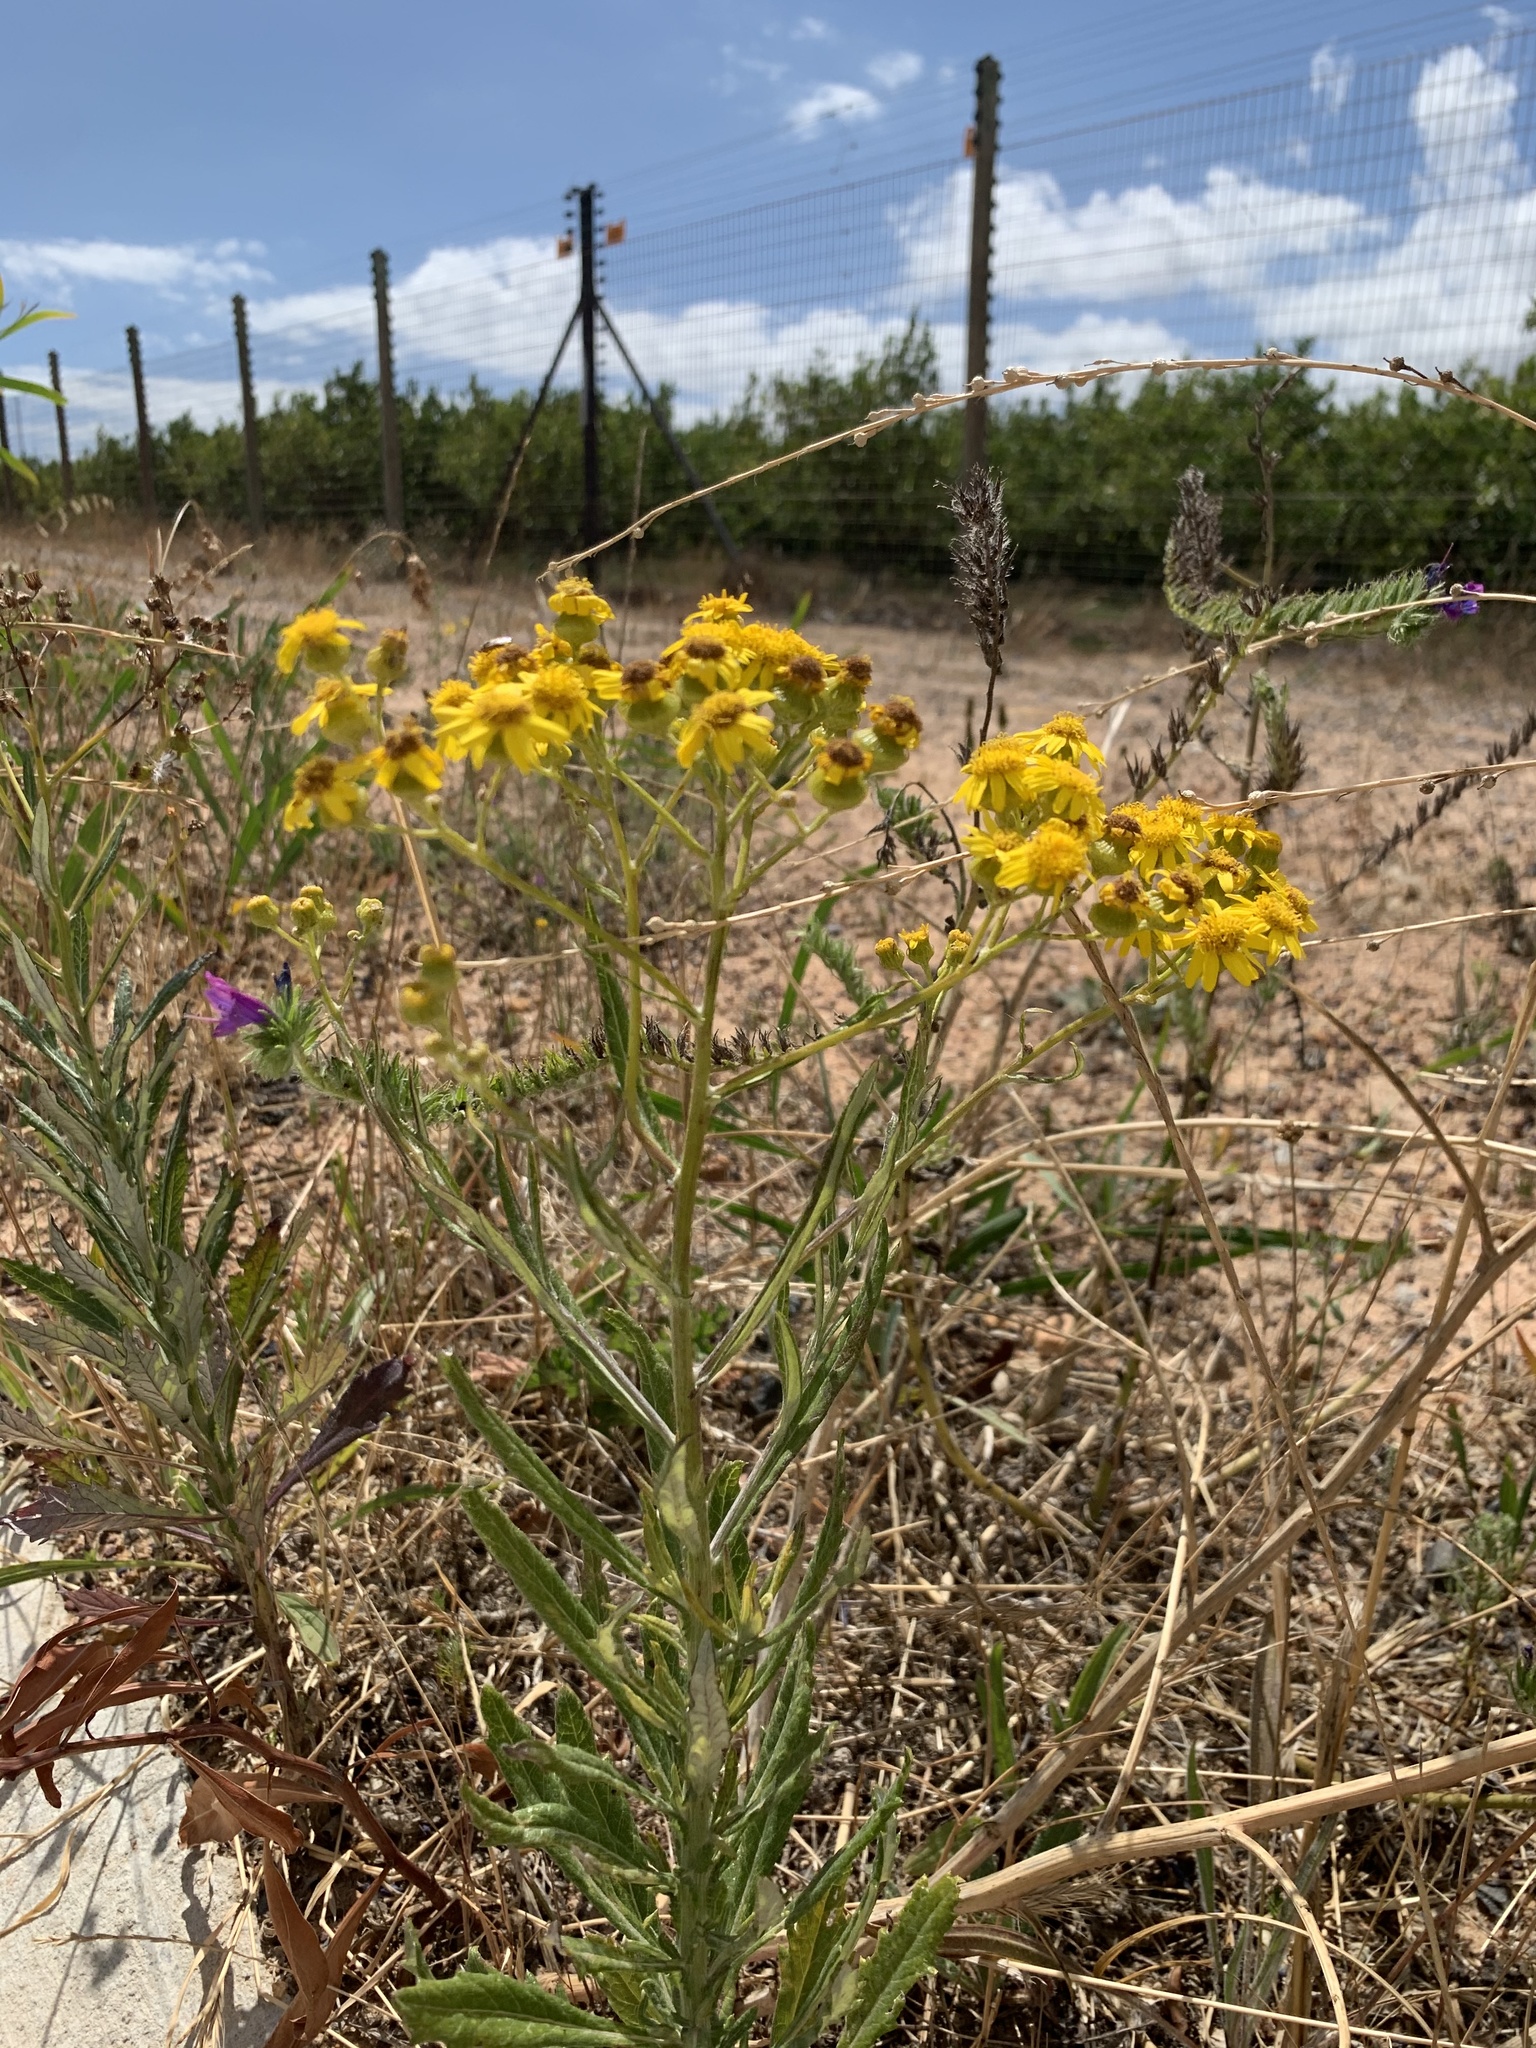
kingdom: Plantae
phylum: Tracheophyta
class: Magnoliopsida
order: Asterales
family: Asteraceae
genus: Senecio
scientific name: Senecio pterophorus
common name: Shoddy ragwort
